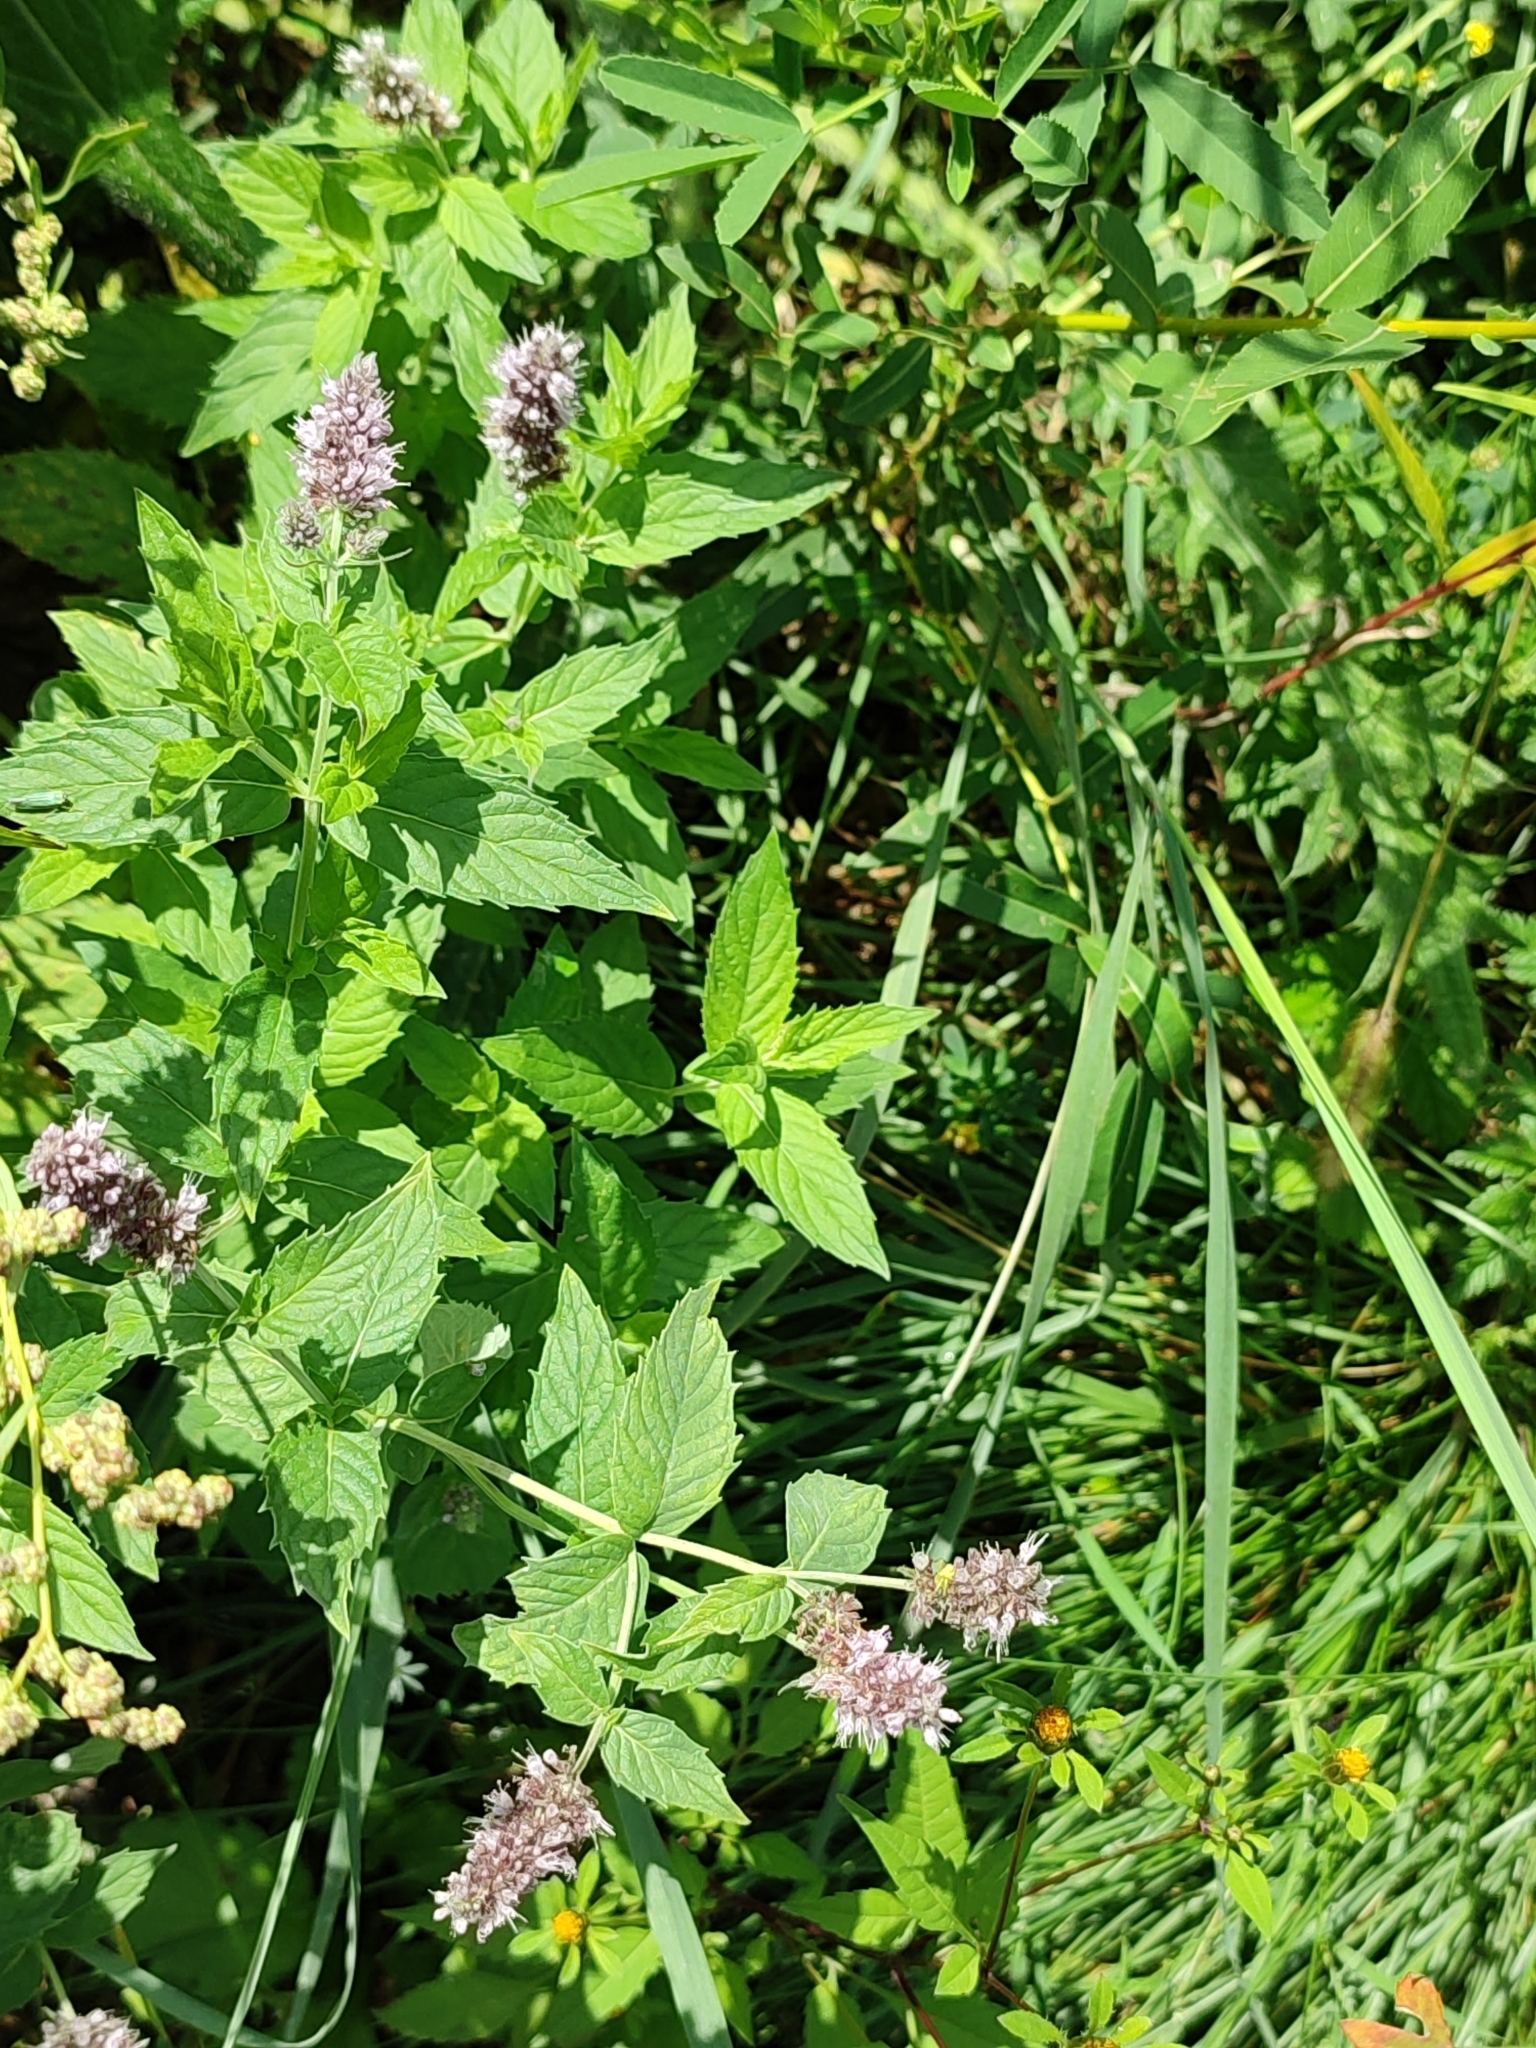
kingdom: Plantae
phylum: Tracheophyta
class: Magnoliopsida
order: Lamiales
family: Lamiaceae
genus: Mentha
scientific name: Mentha longifolia
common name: Horse mint
